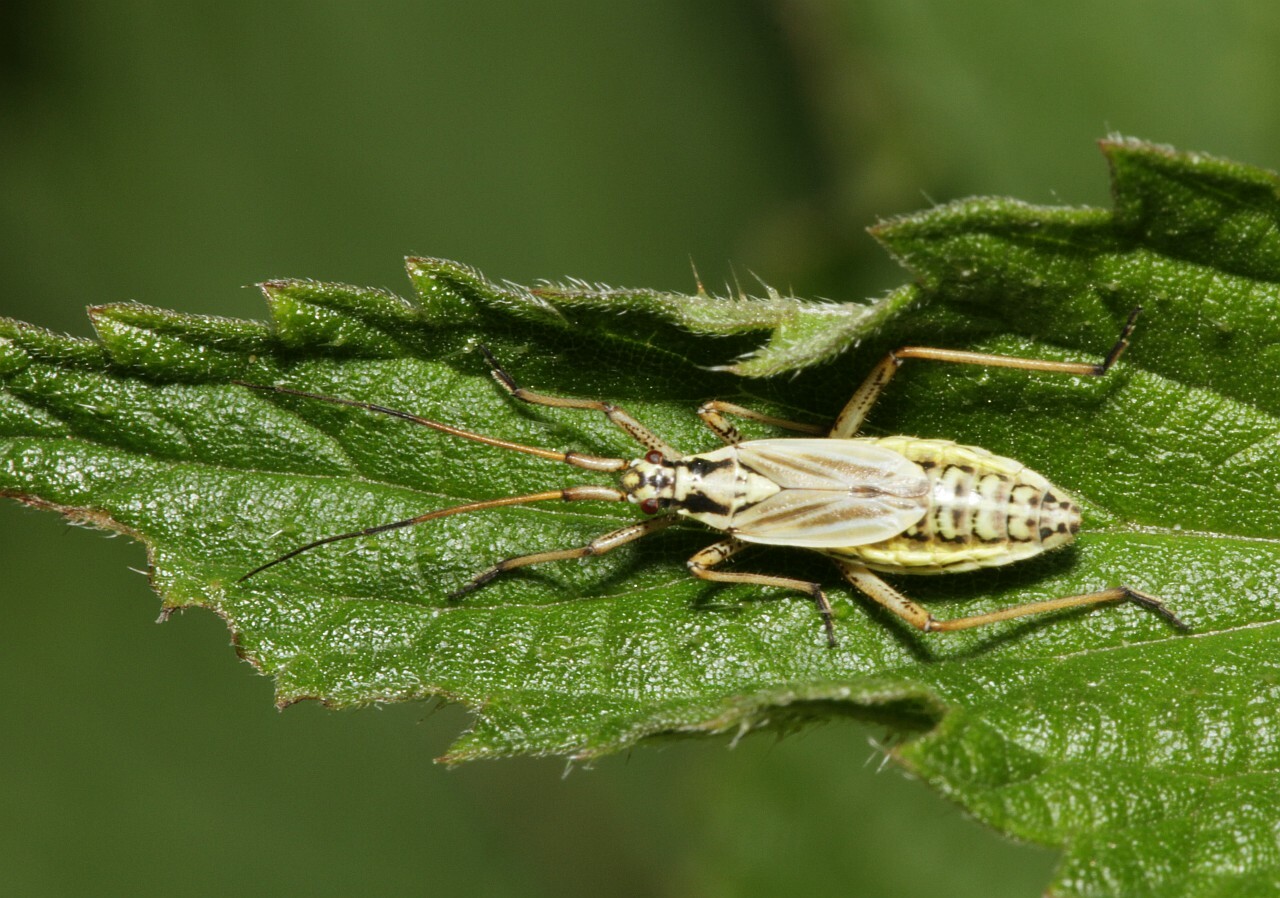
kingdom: Animalia
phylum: Arthropoda
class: Insecta
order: Hemiptera
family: Miridae
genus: Leptopterna
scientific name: Leptopterna dolabrata
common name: Meadow plant bug
